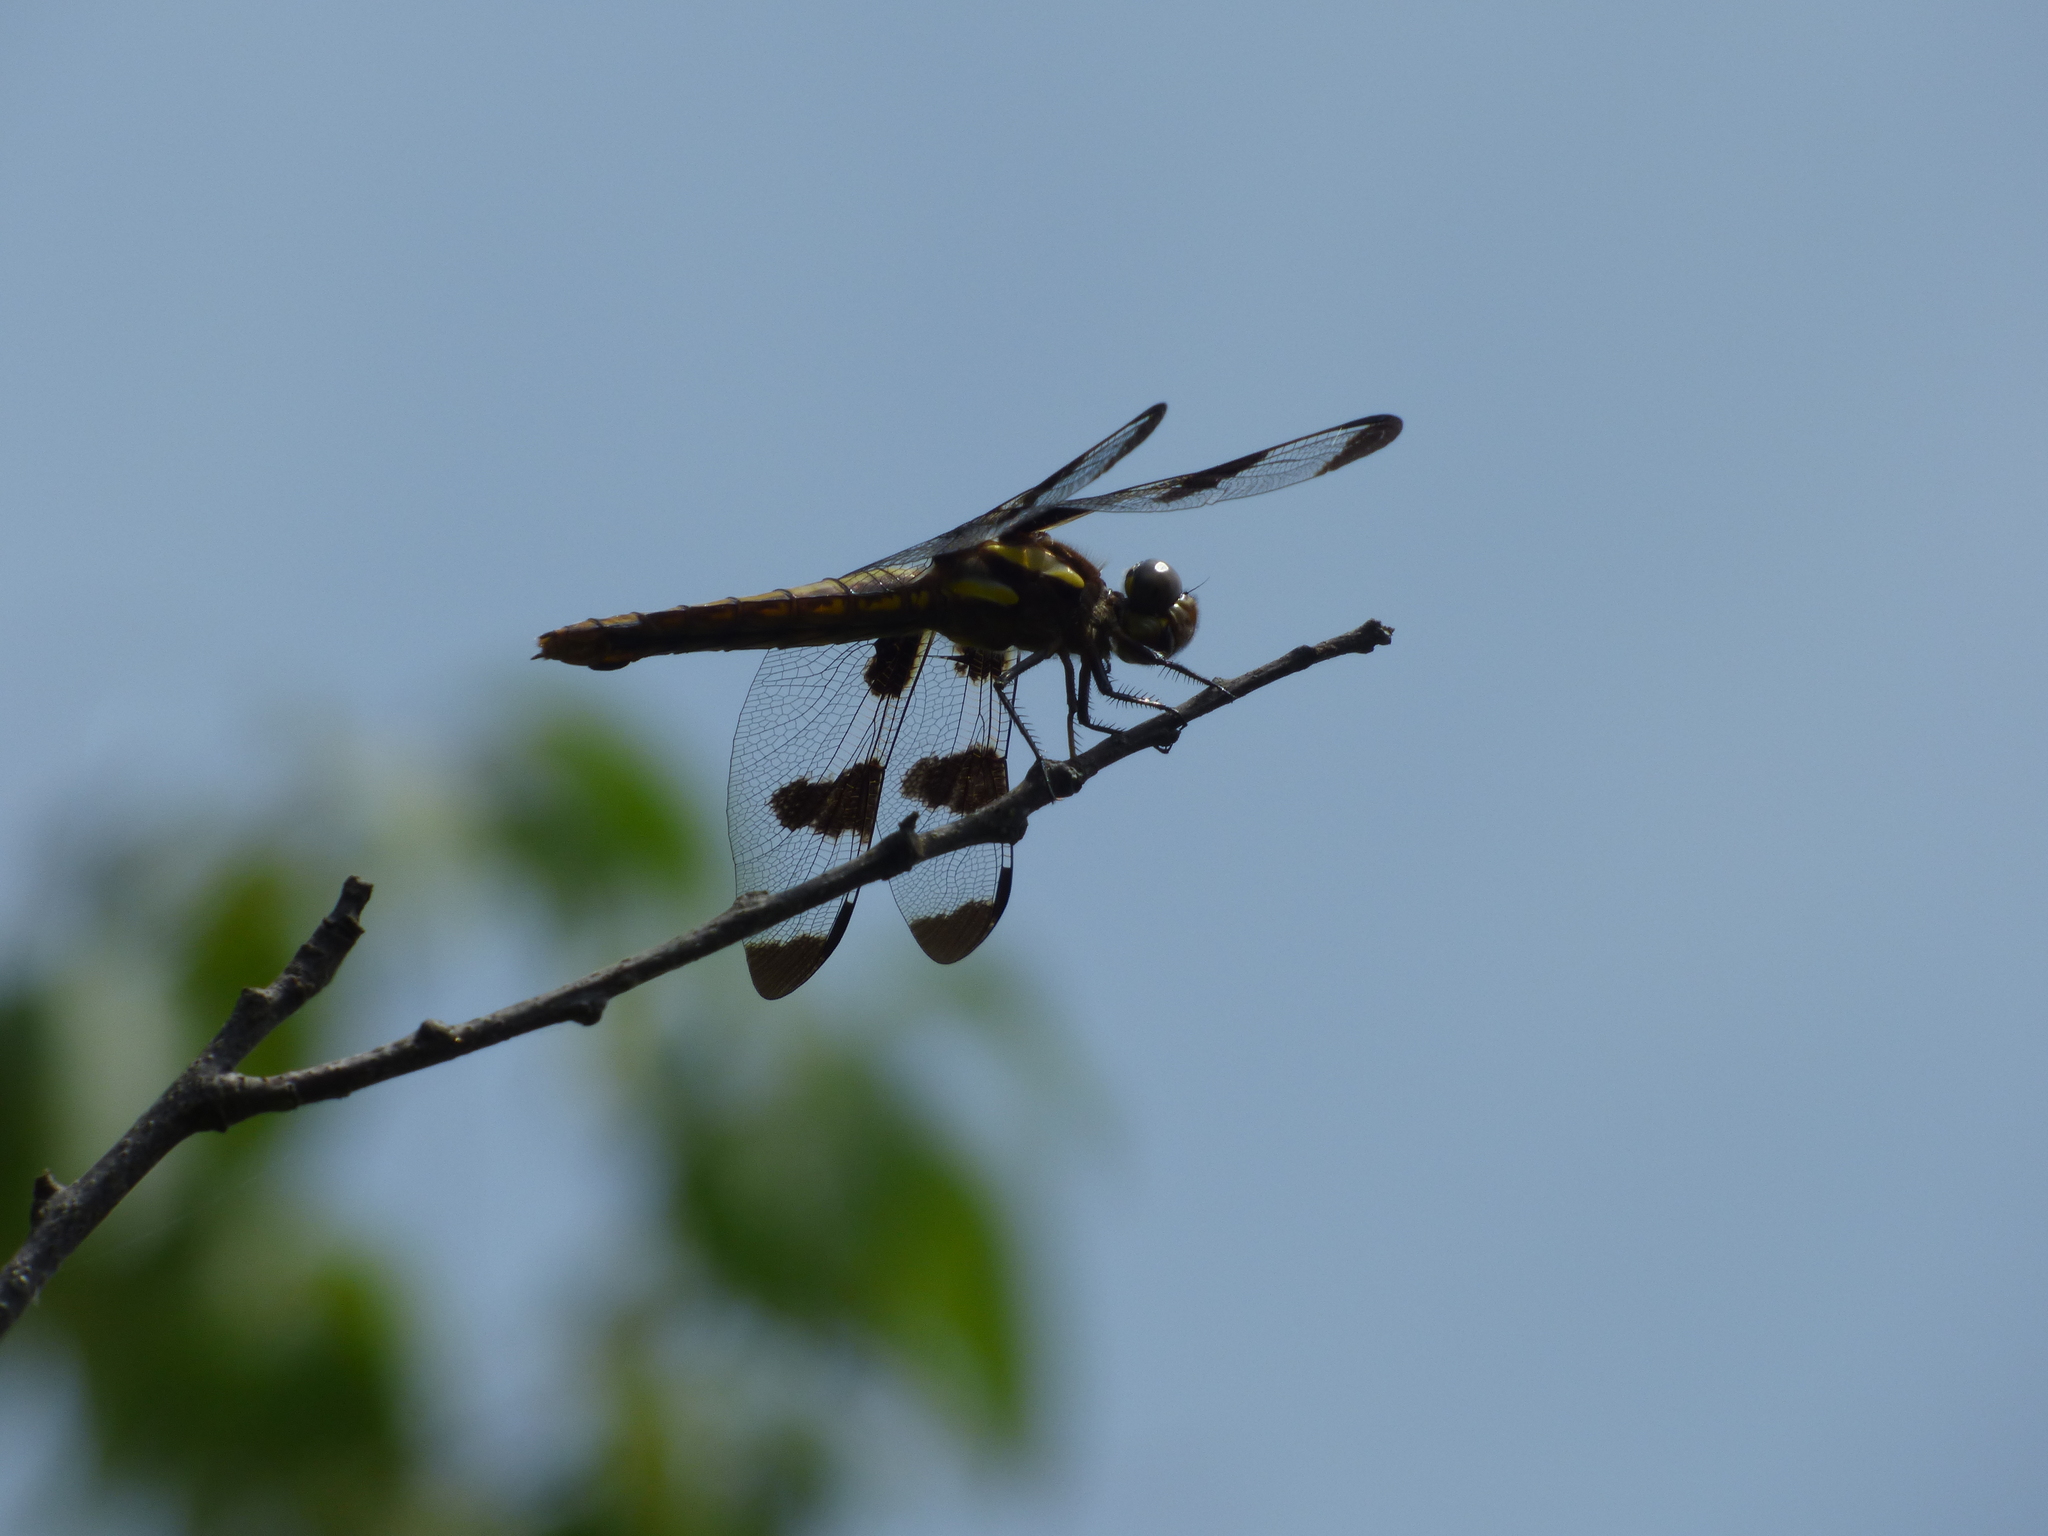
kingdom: Animalia
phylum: Arthropoda
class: Insecta
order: Odonata
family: Libellulidae
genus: Libellula
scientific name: Libellula pulchella
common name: Twelve-spotted skimmer
